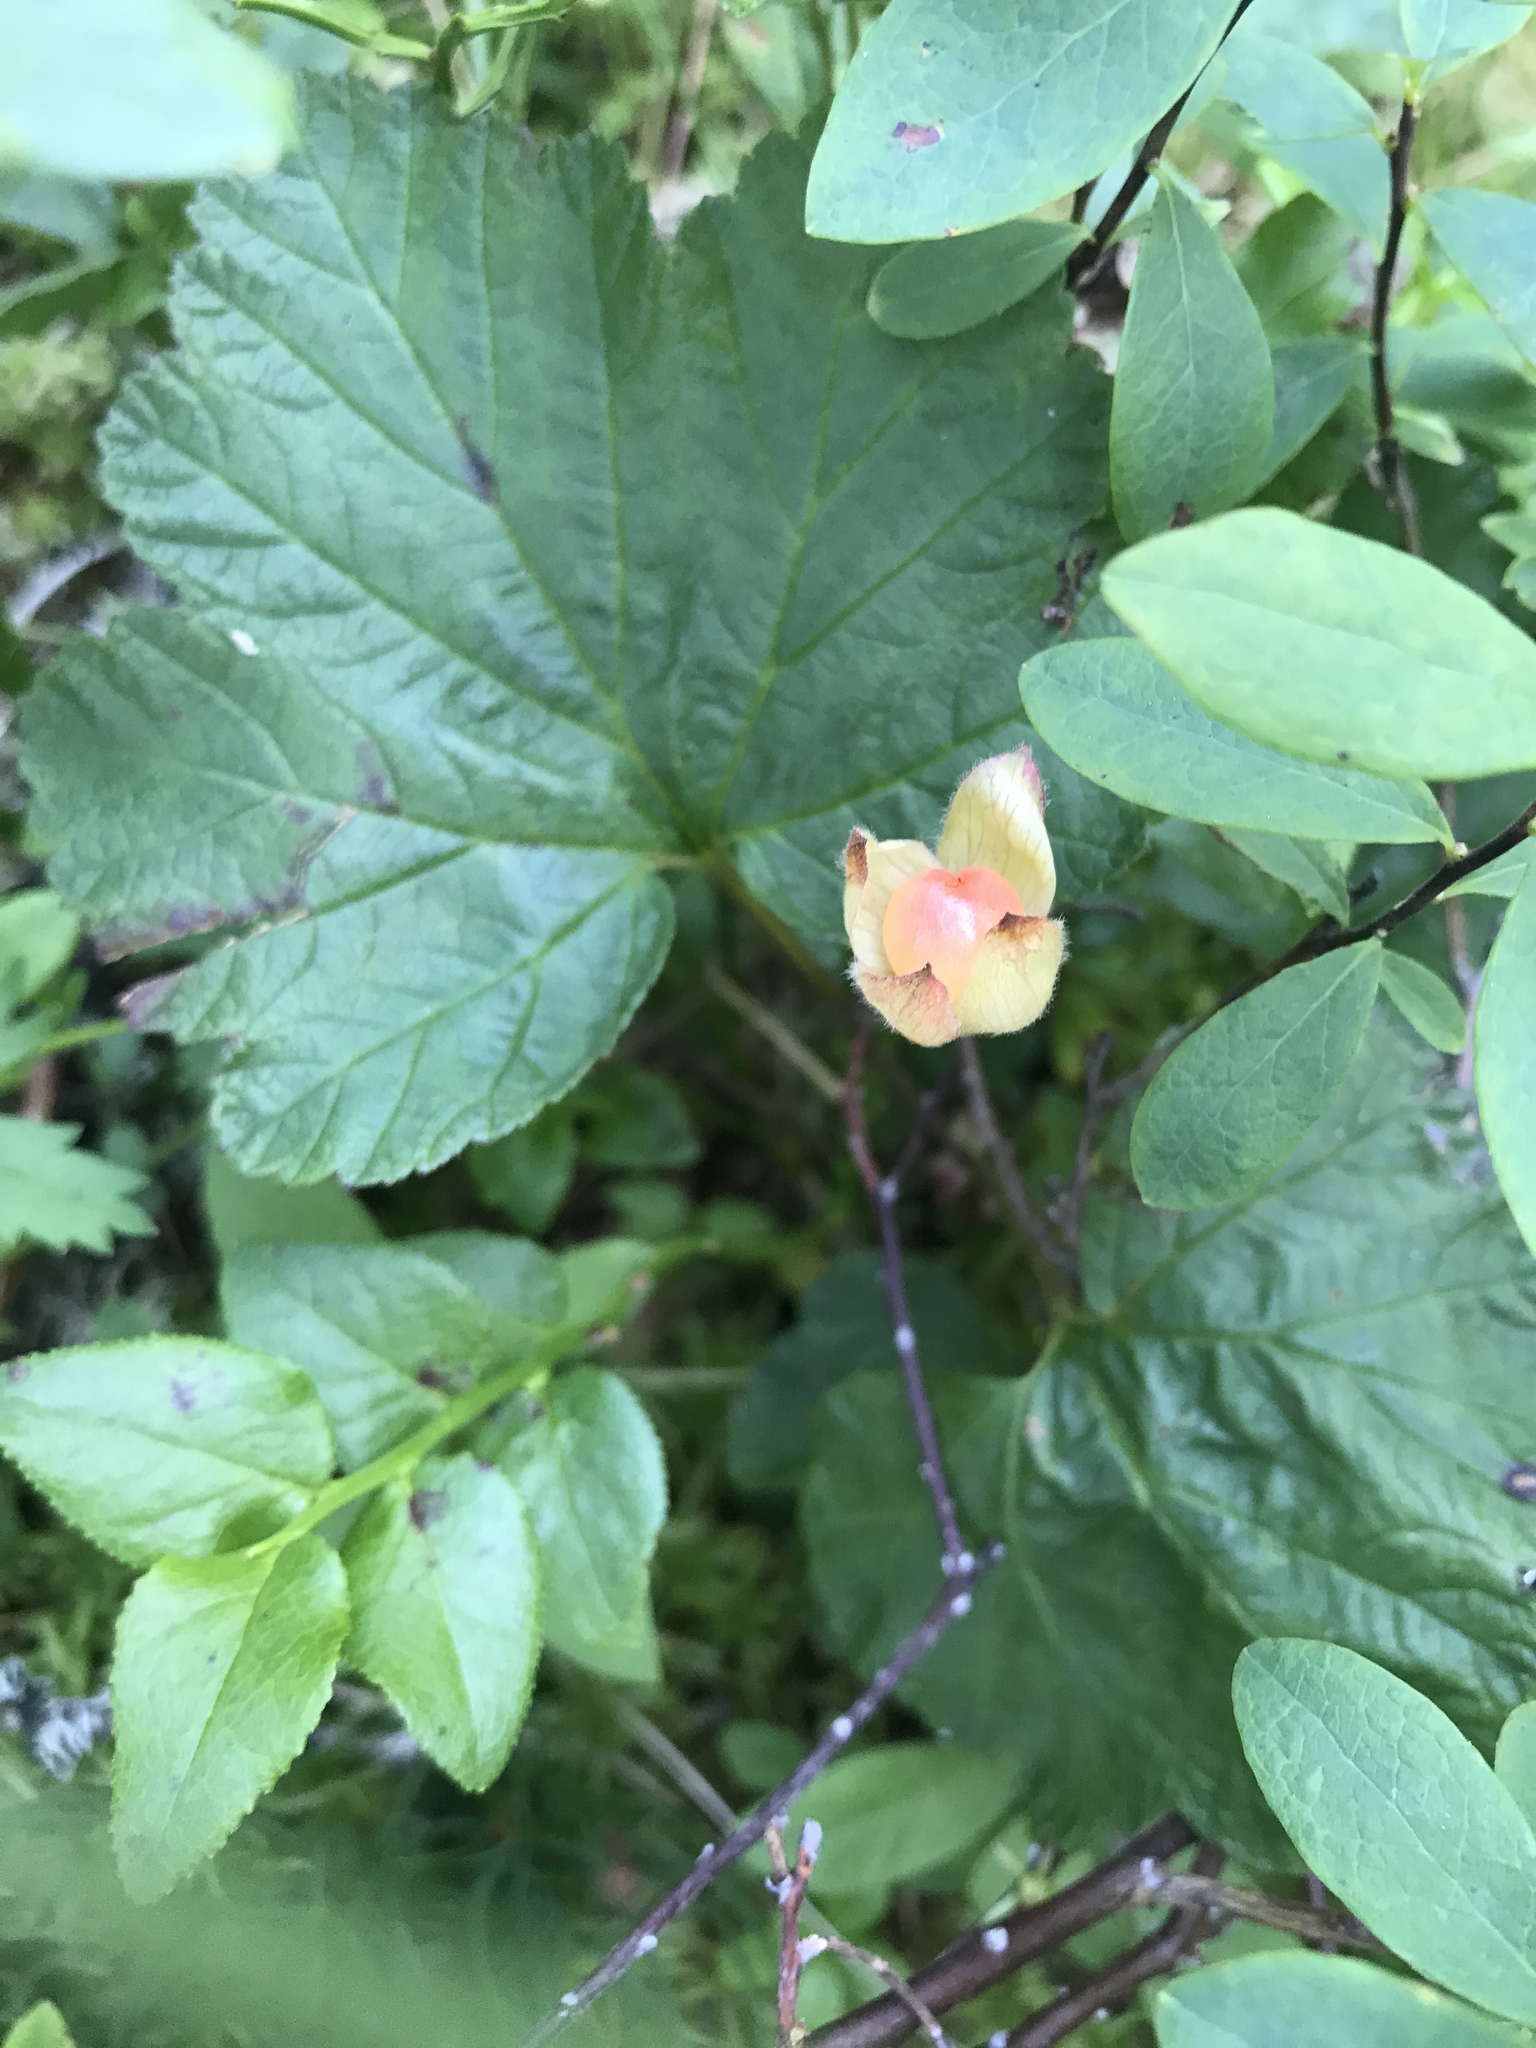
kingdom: Plantae
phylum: Tracheophyta
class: Magnoliopsida
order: Rosales
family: Rosaceae
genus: Rubus
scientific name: Rubus chamaemorus
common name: Cloudberry
